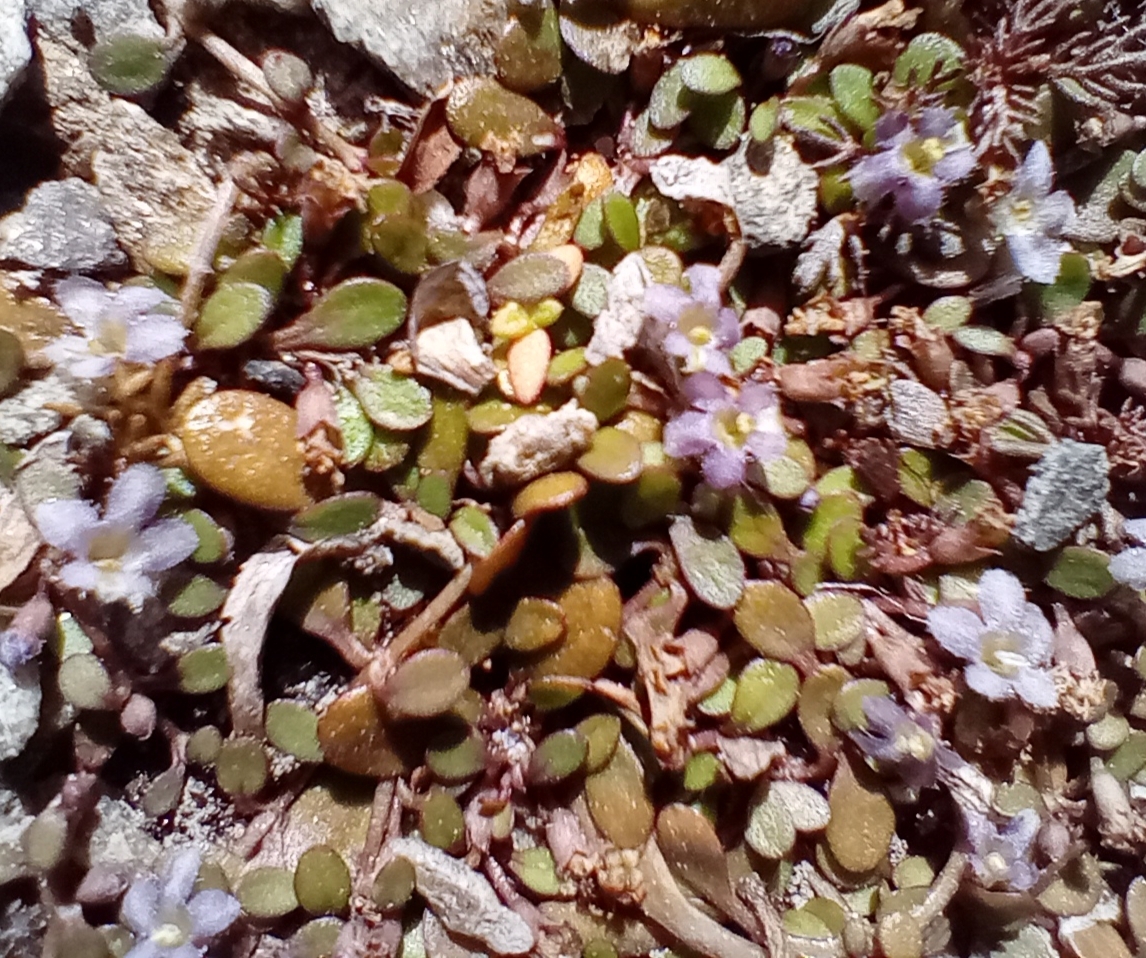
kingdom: Plantae
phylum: Tracheophyta
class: Magnoliopsida
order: Lamiales
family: Phrymaceae
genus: Glossostigma
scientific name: Glossostigma elatinoides
